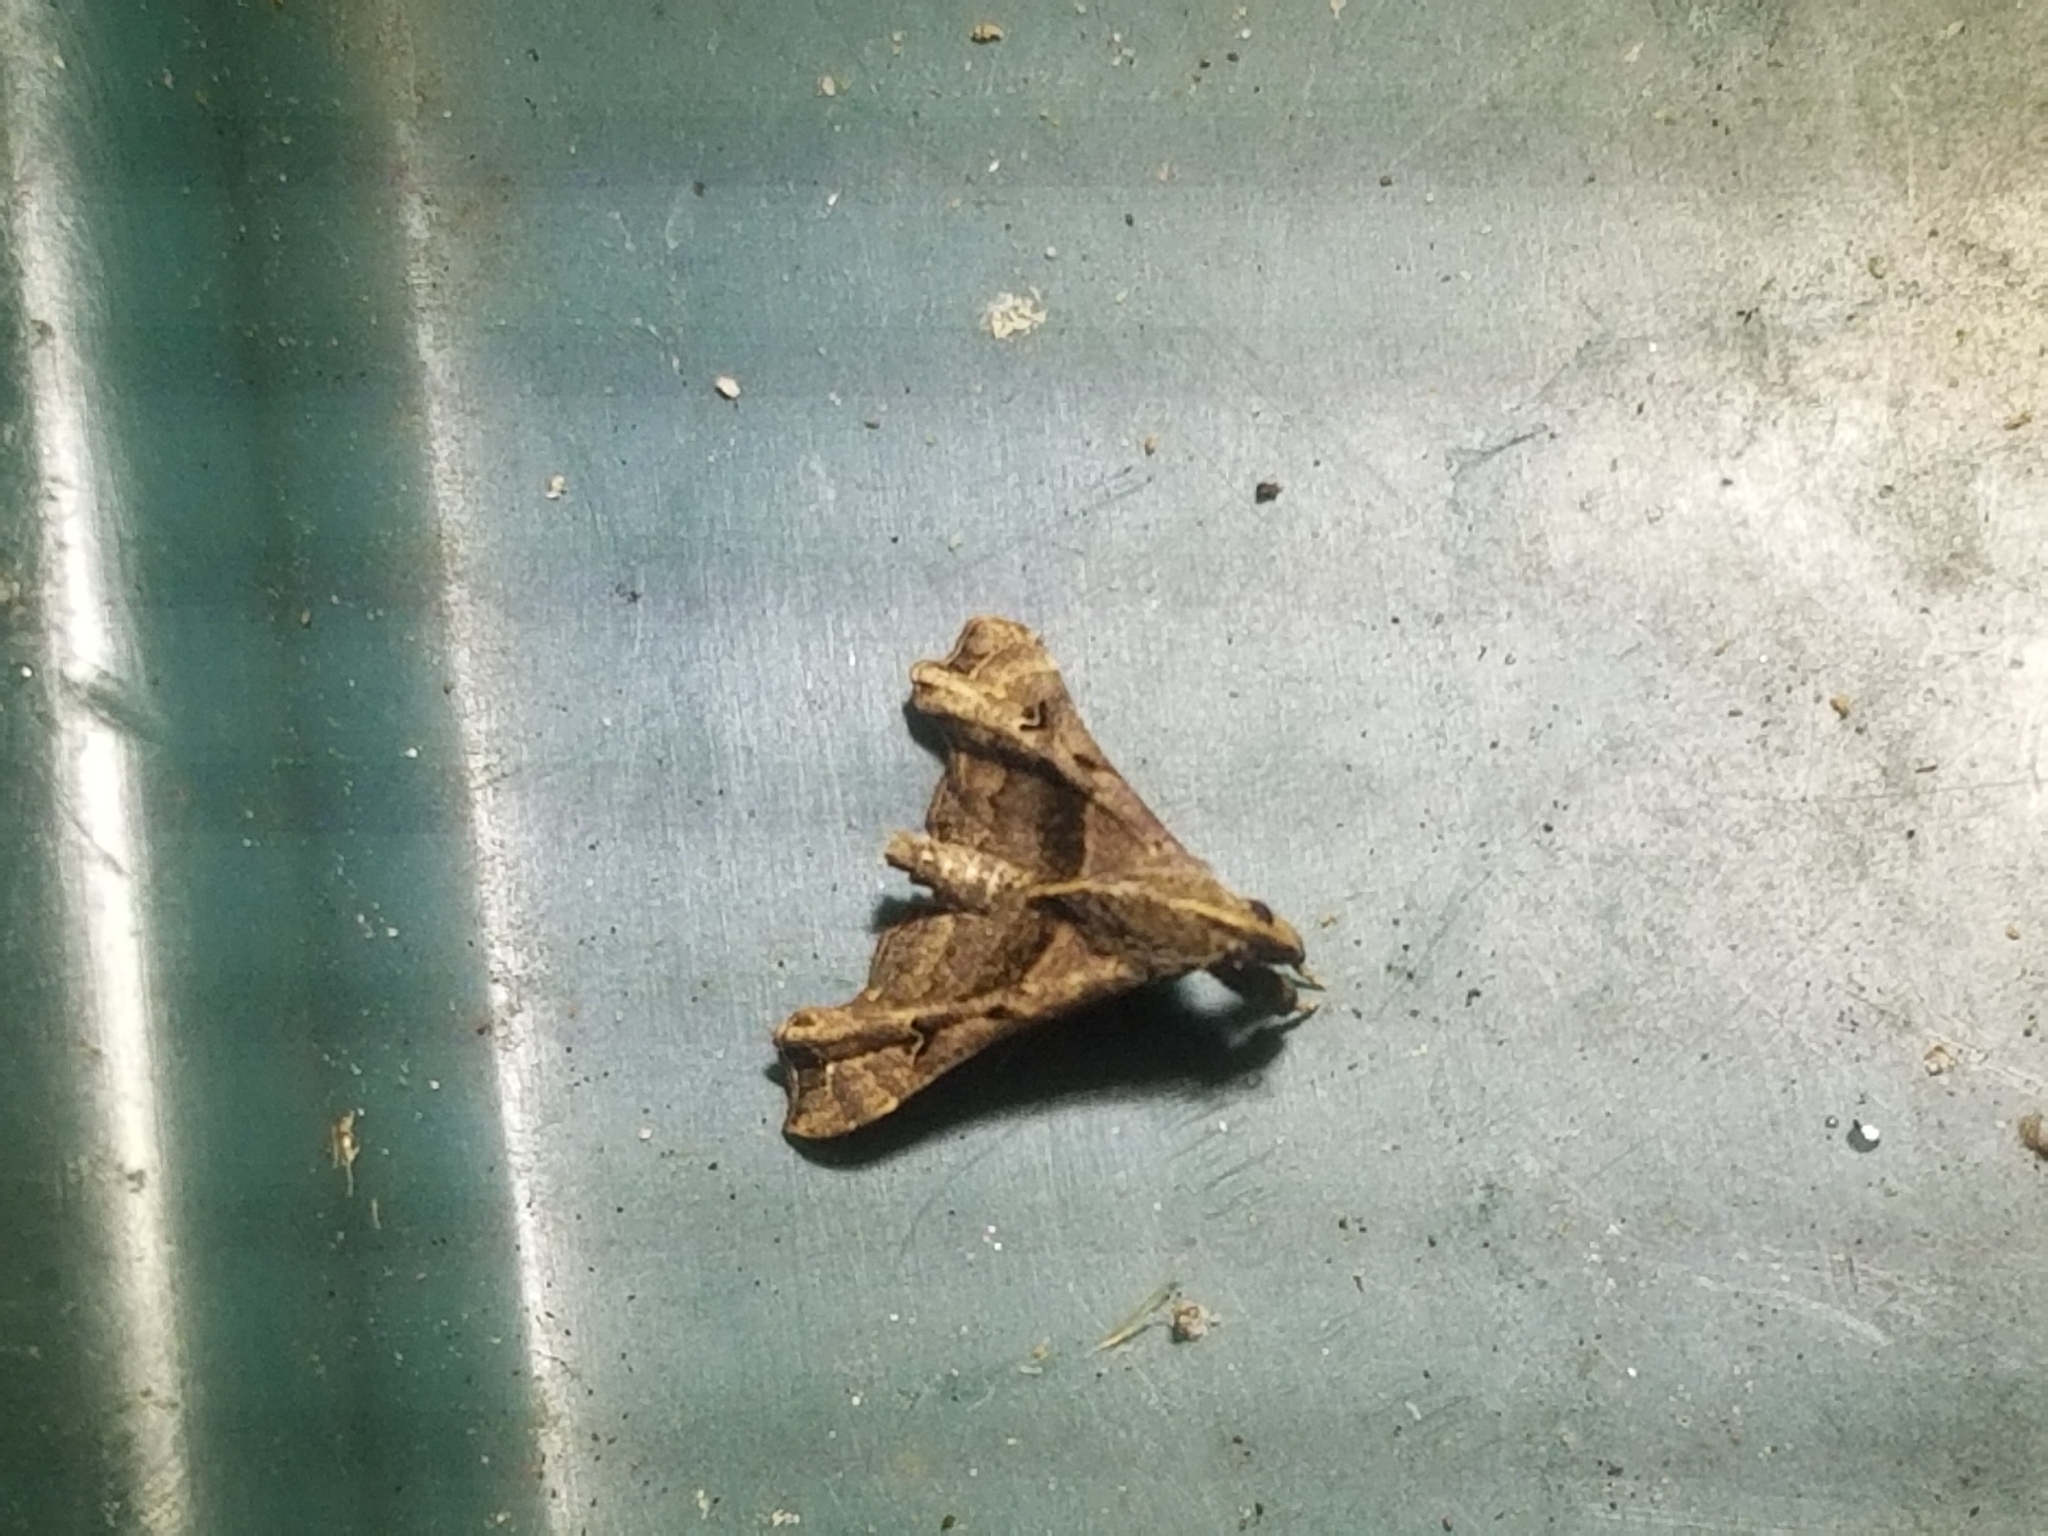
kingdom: Animalia
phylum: Arthropoda
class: Insecta
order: Lepidoptera
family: Erebidae
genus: Palthis
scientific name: Palthis asopialis
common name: Faint-spotted palthis moth
